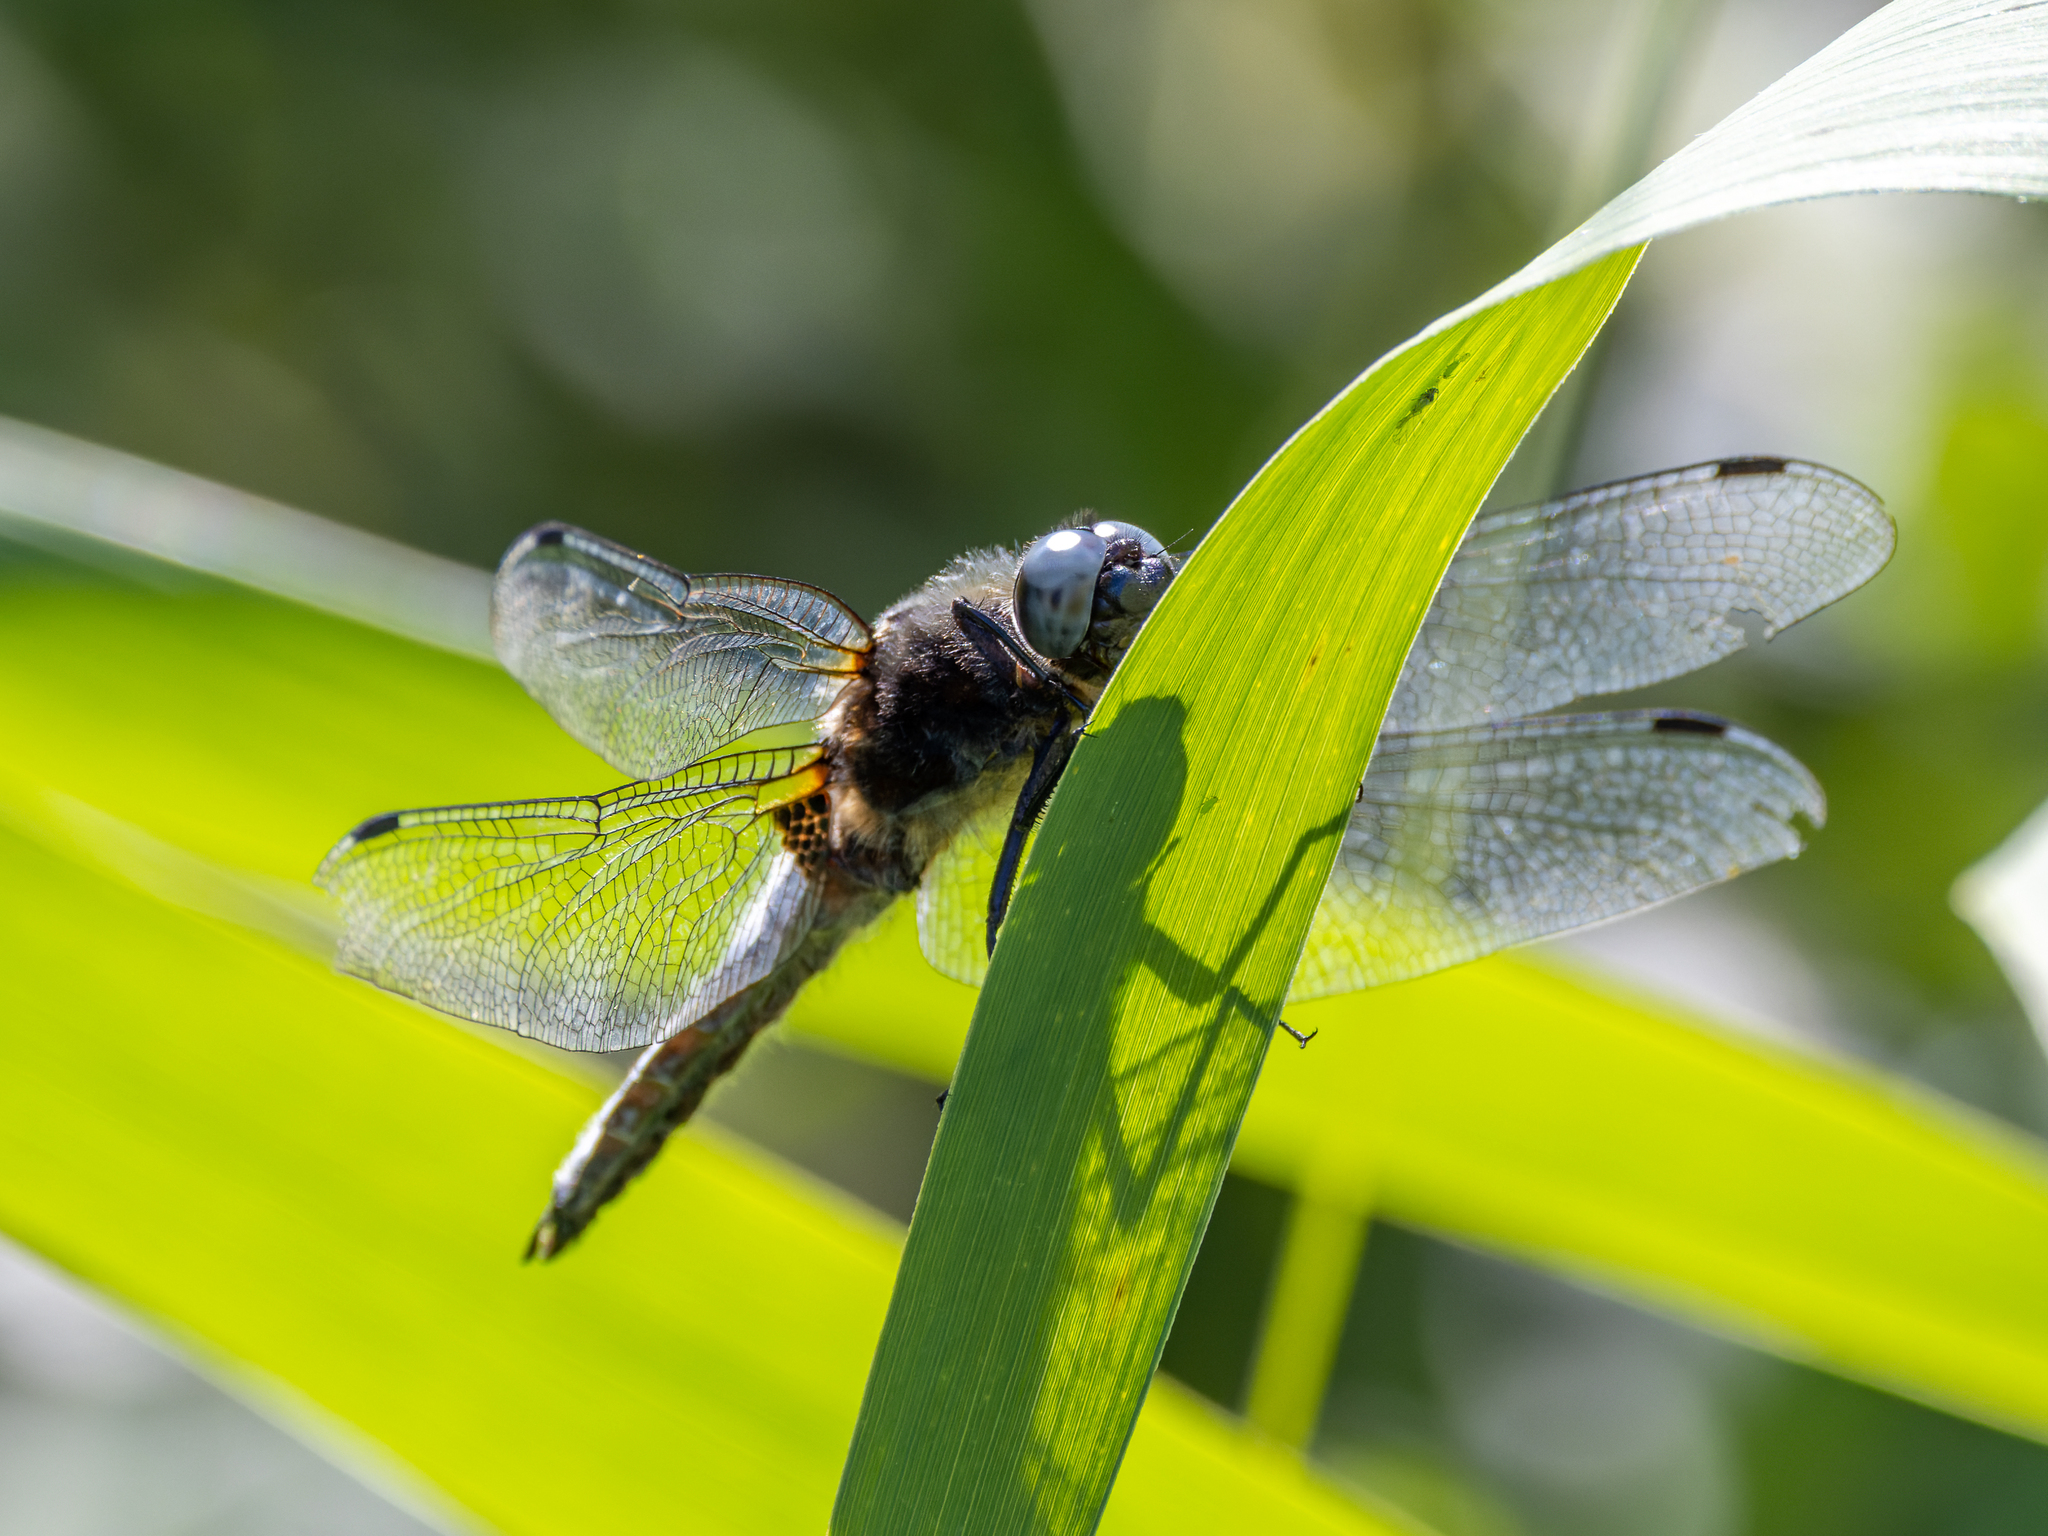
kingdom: Animalia
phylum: Arthropoda
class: Insecta
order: Odonata
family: Libellulidae
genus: Libellula
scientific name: Libellula fulva
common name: Blue chaser
